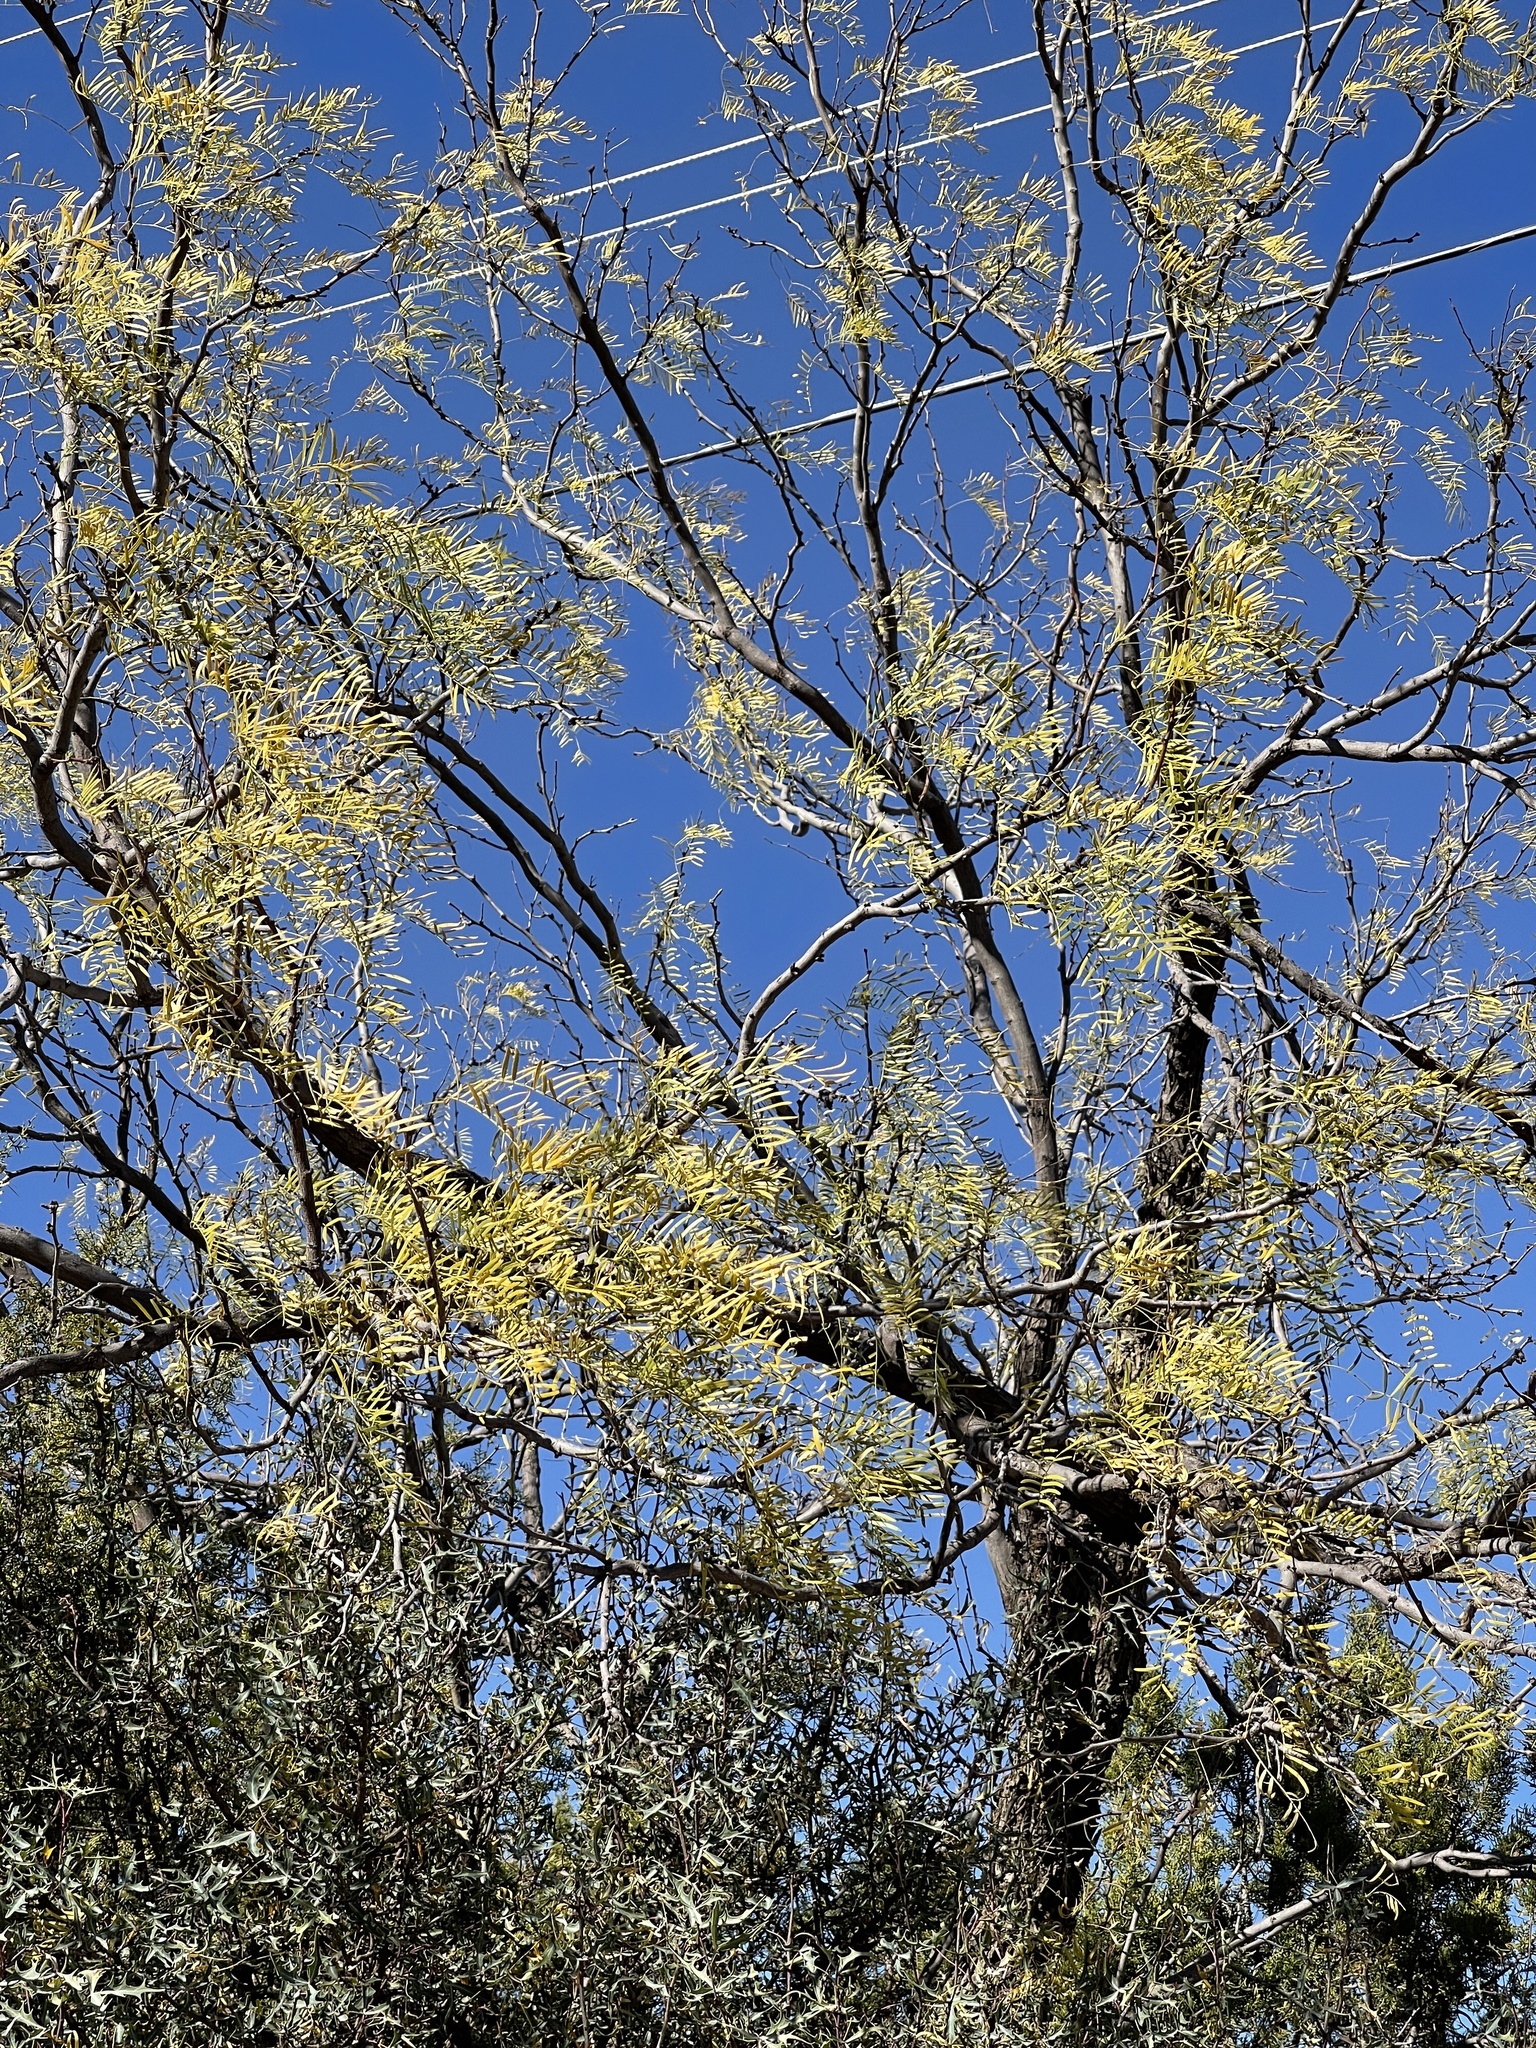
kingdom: Plantae
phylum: Tracheophyta
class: Magnoliopsida
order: Fabales
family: Fabaceae
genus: Prosopis
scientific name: Prosopis glandulosa
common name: Honey mesquite
